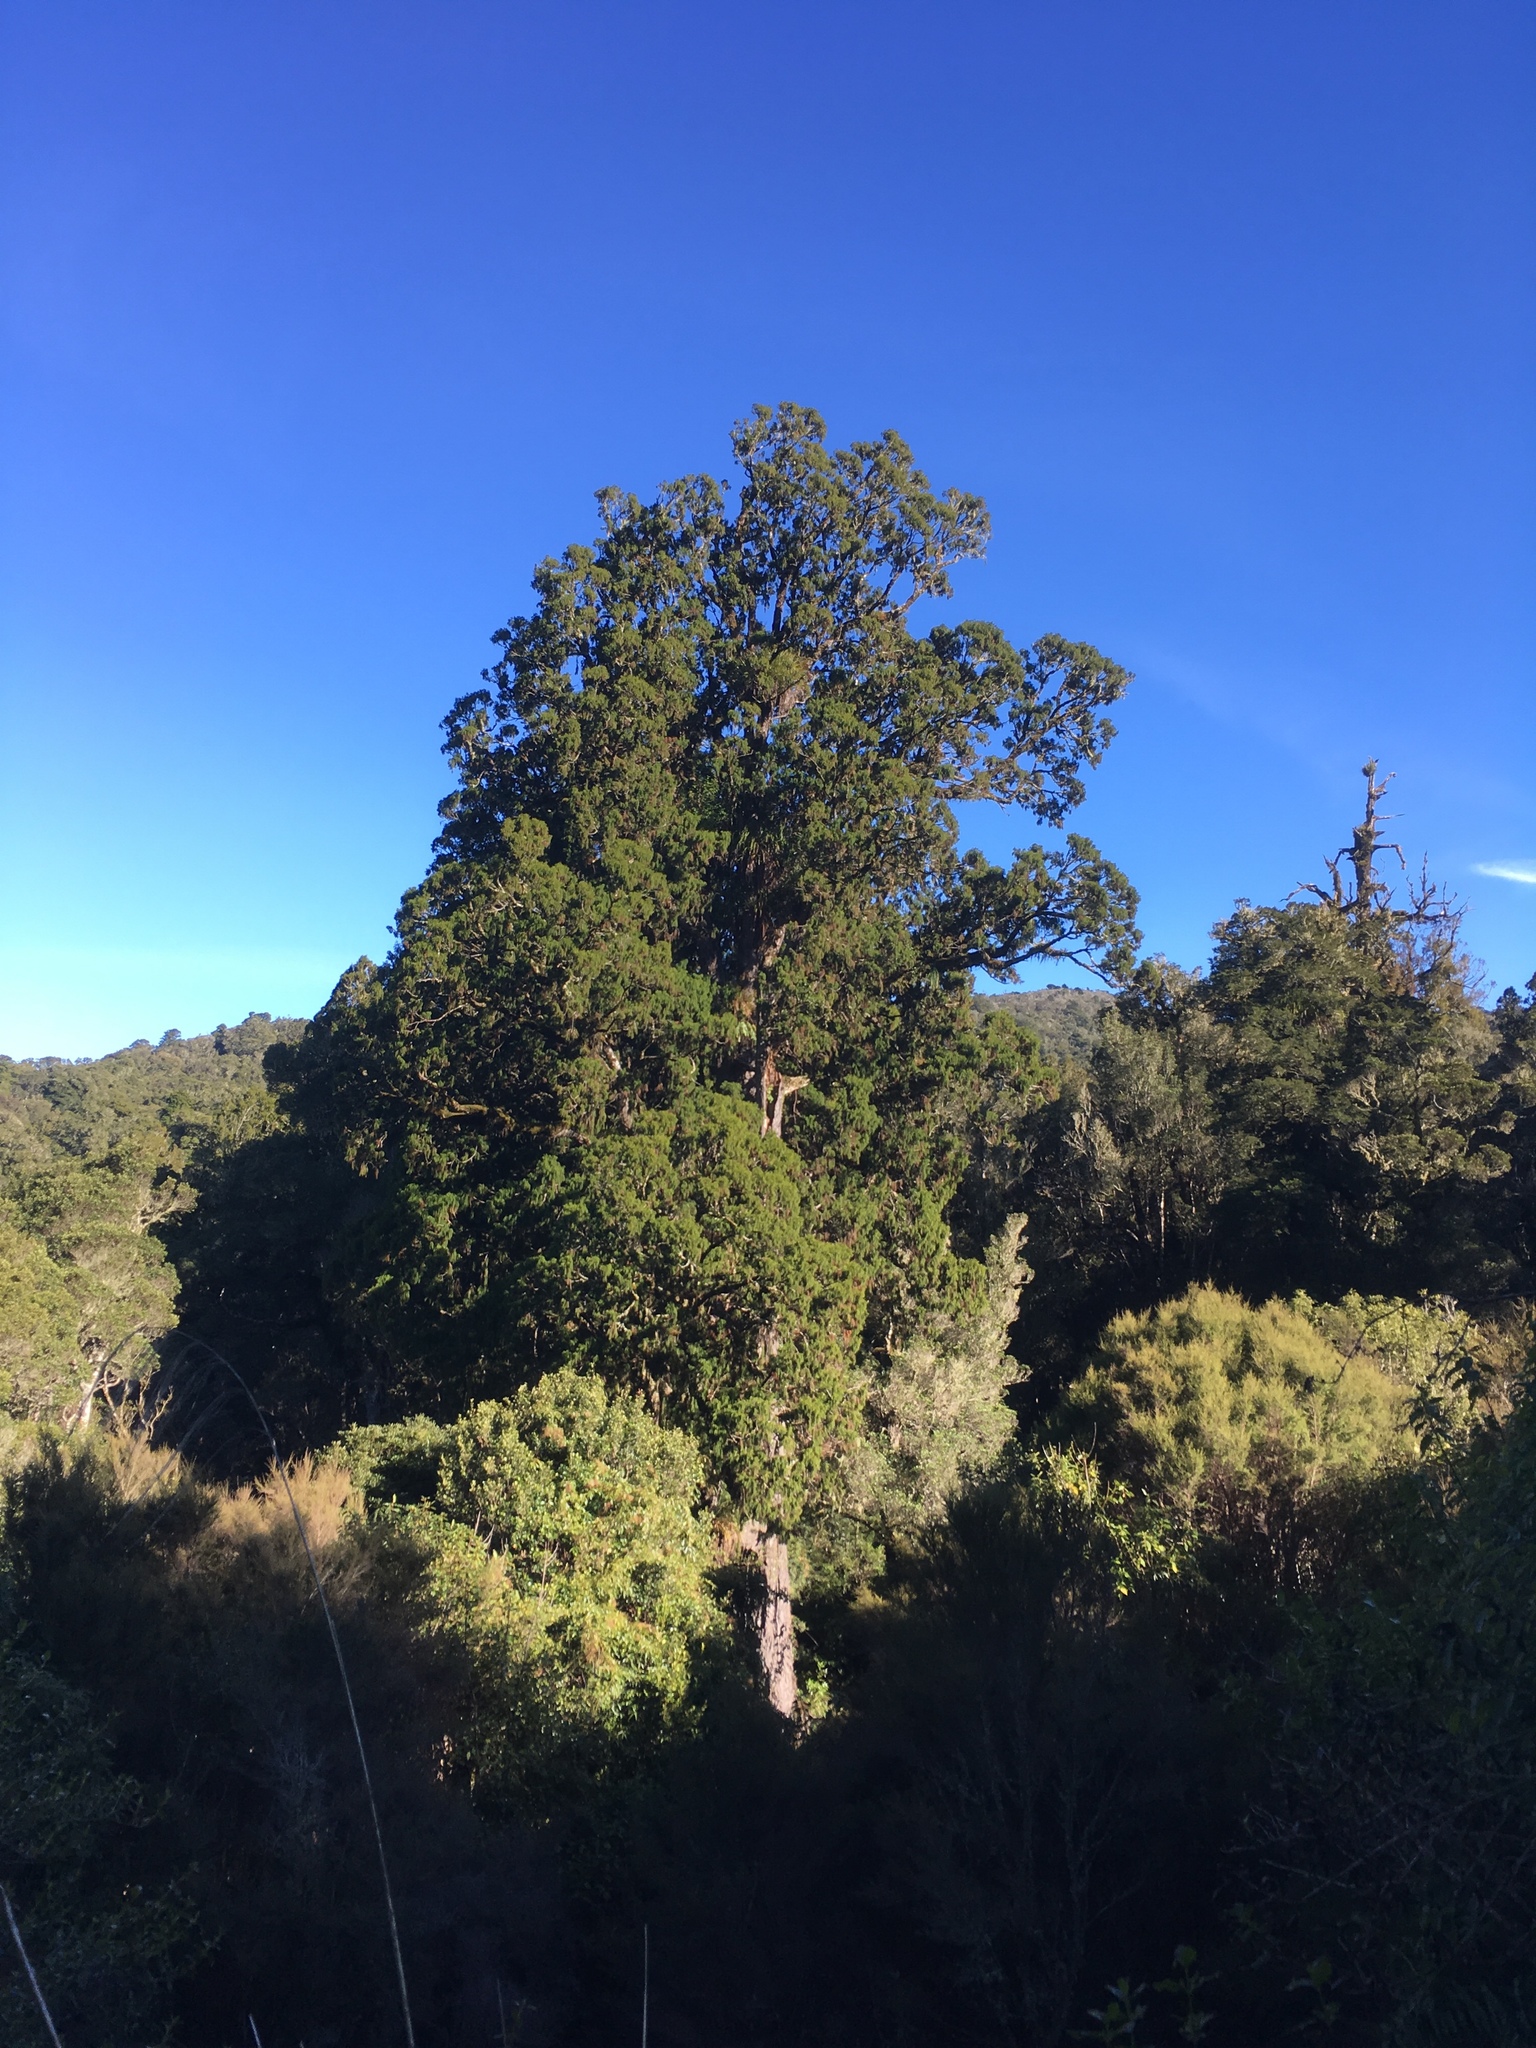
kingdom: Plantae
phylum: Tracheophyta
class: Pinopsida
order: Pinales
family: Podocarpaceae
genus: Dacrydium
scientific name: Dacrydium cupressinum
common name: Red pine
